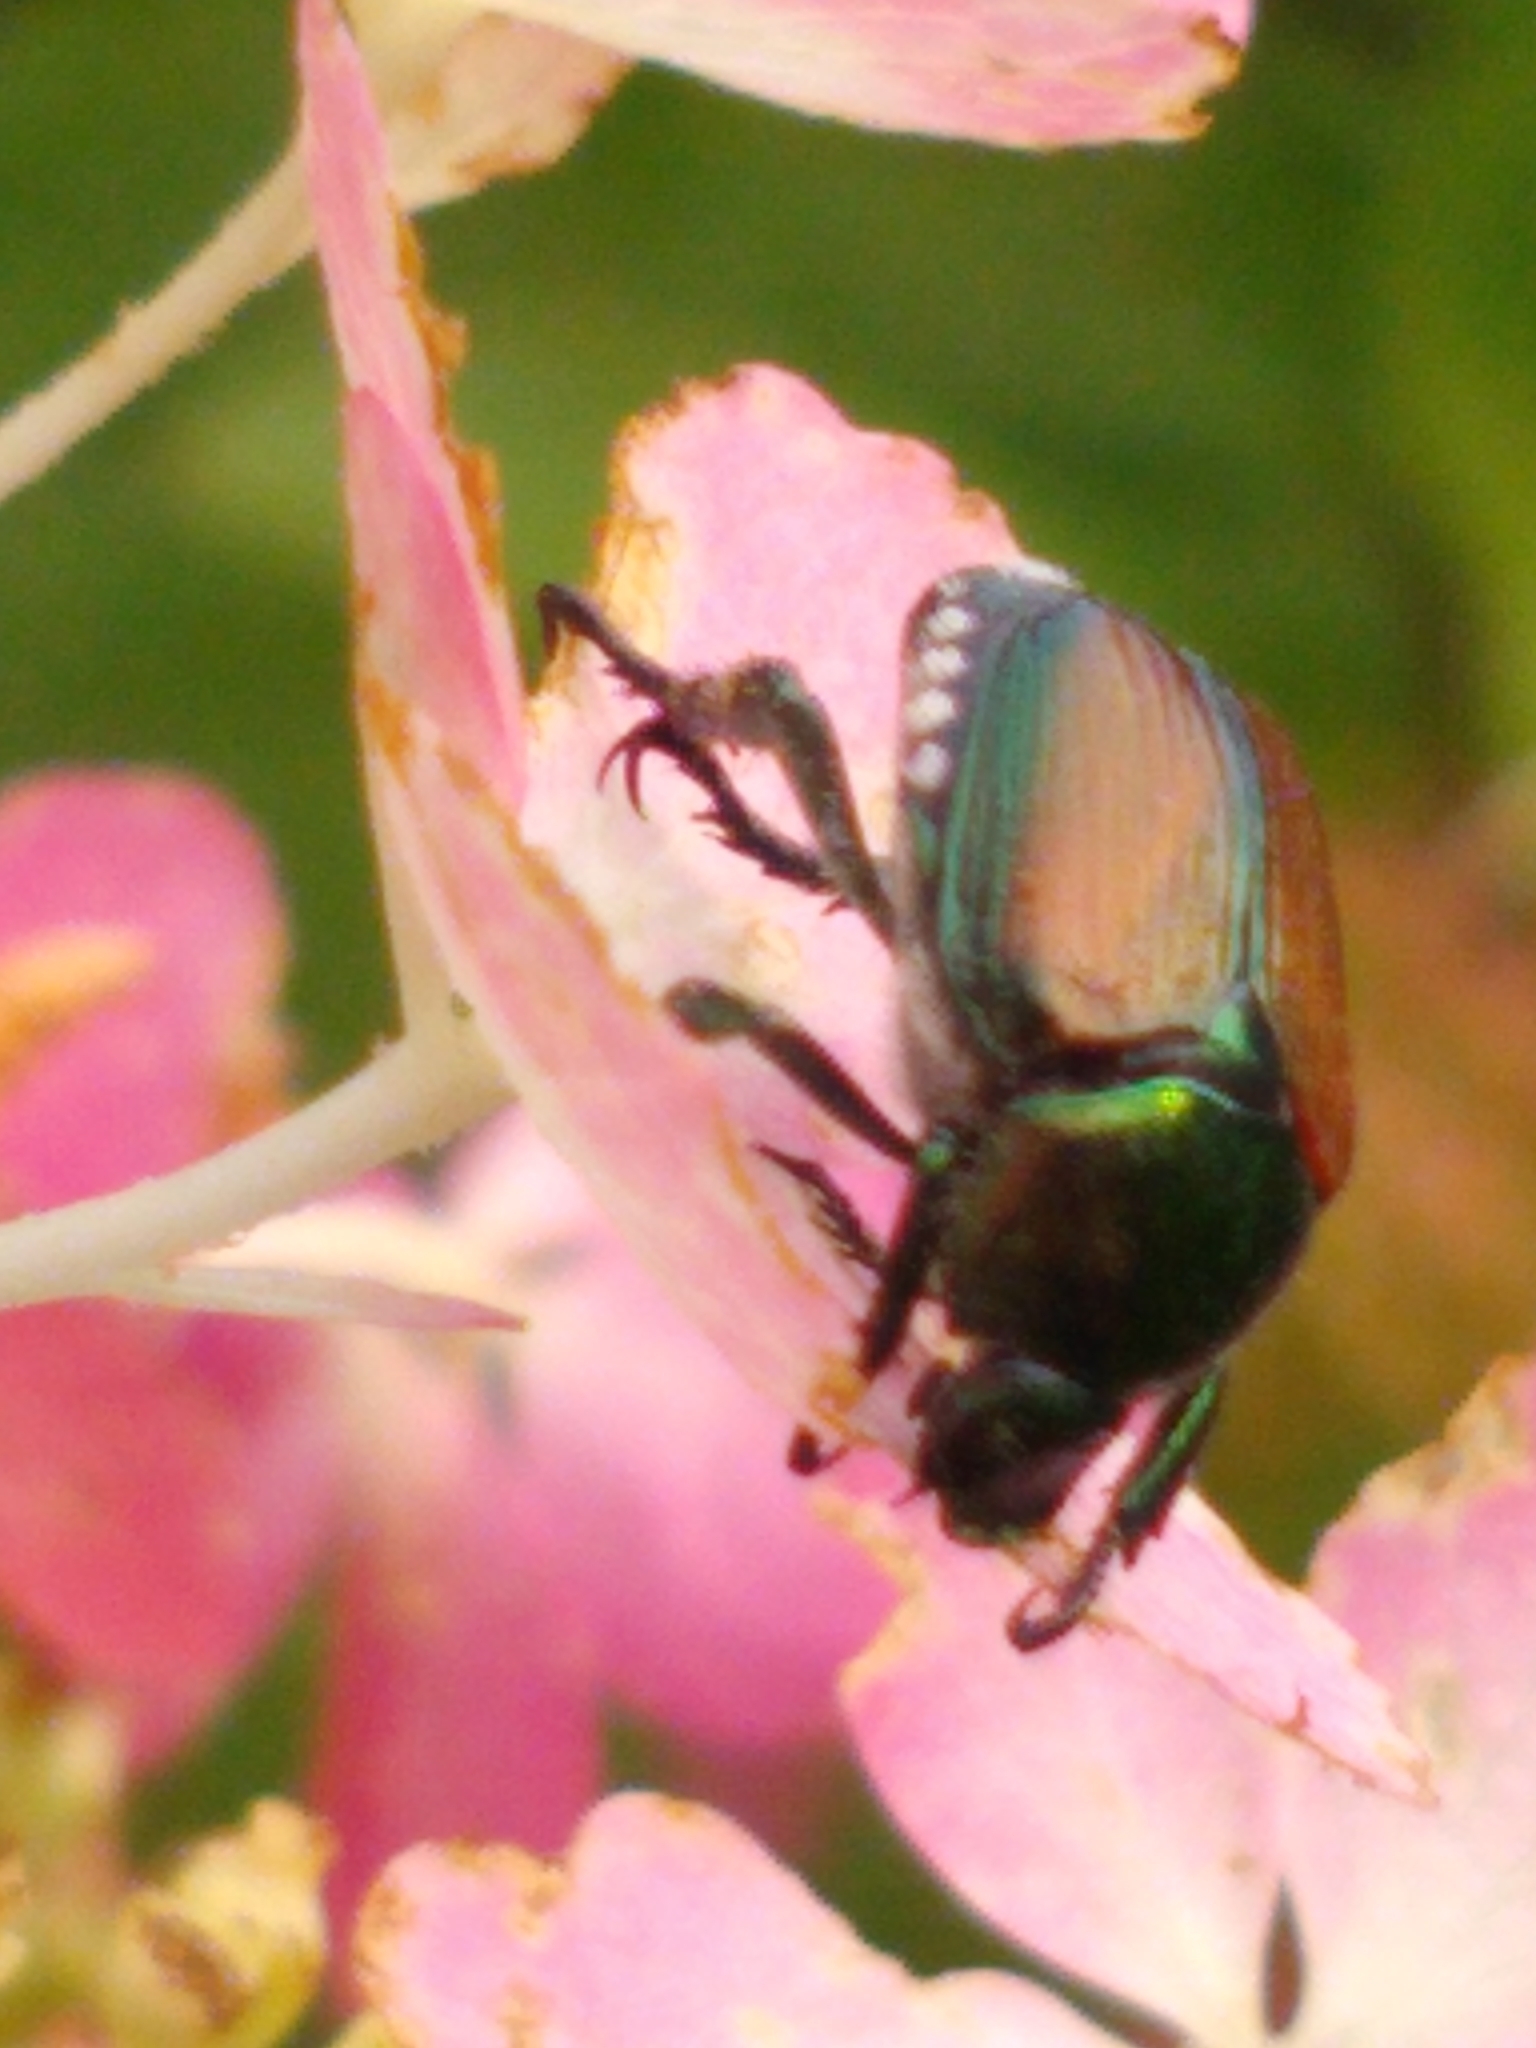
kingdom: Animalia
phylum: Arthropoda
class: Insecta
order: Coleoptera
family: Scarabaeidae
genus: Popillia
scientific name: Popillia japonica
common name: Japanese beetle
